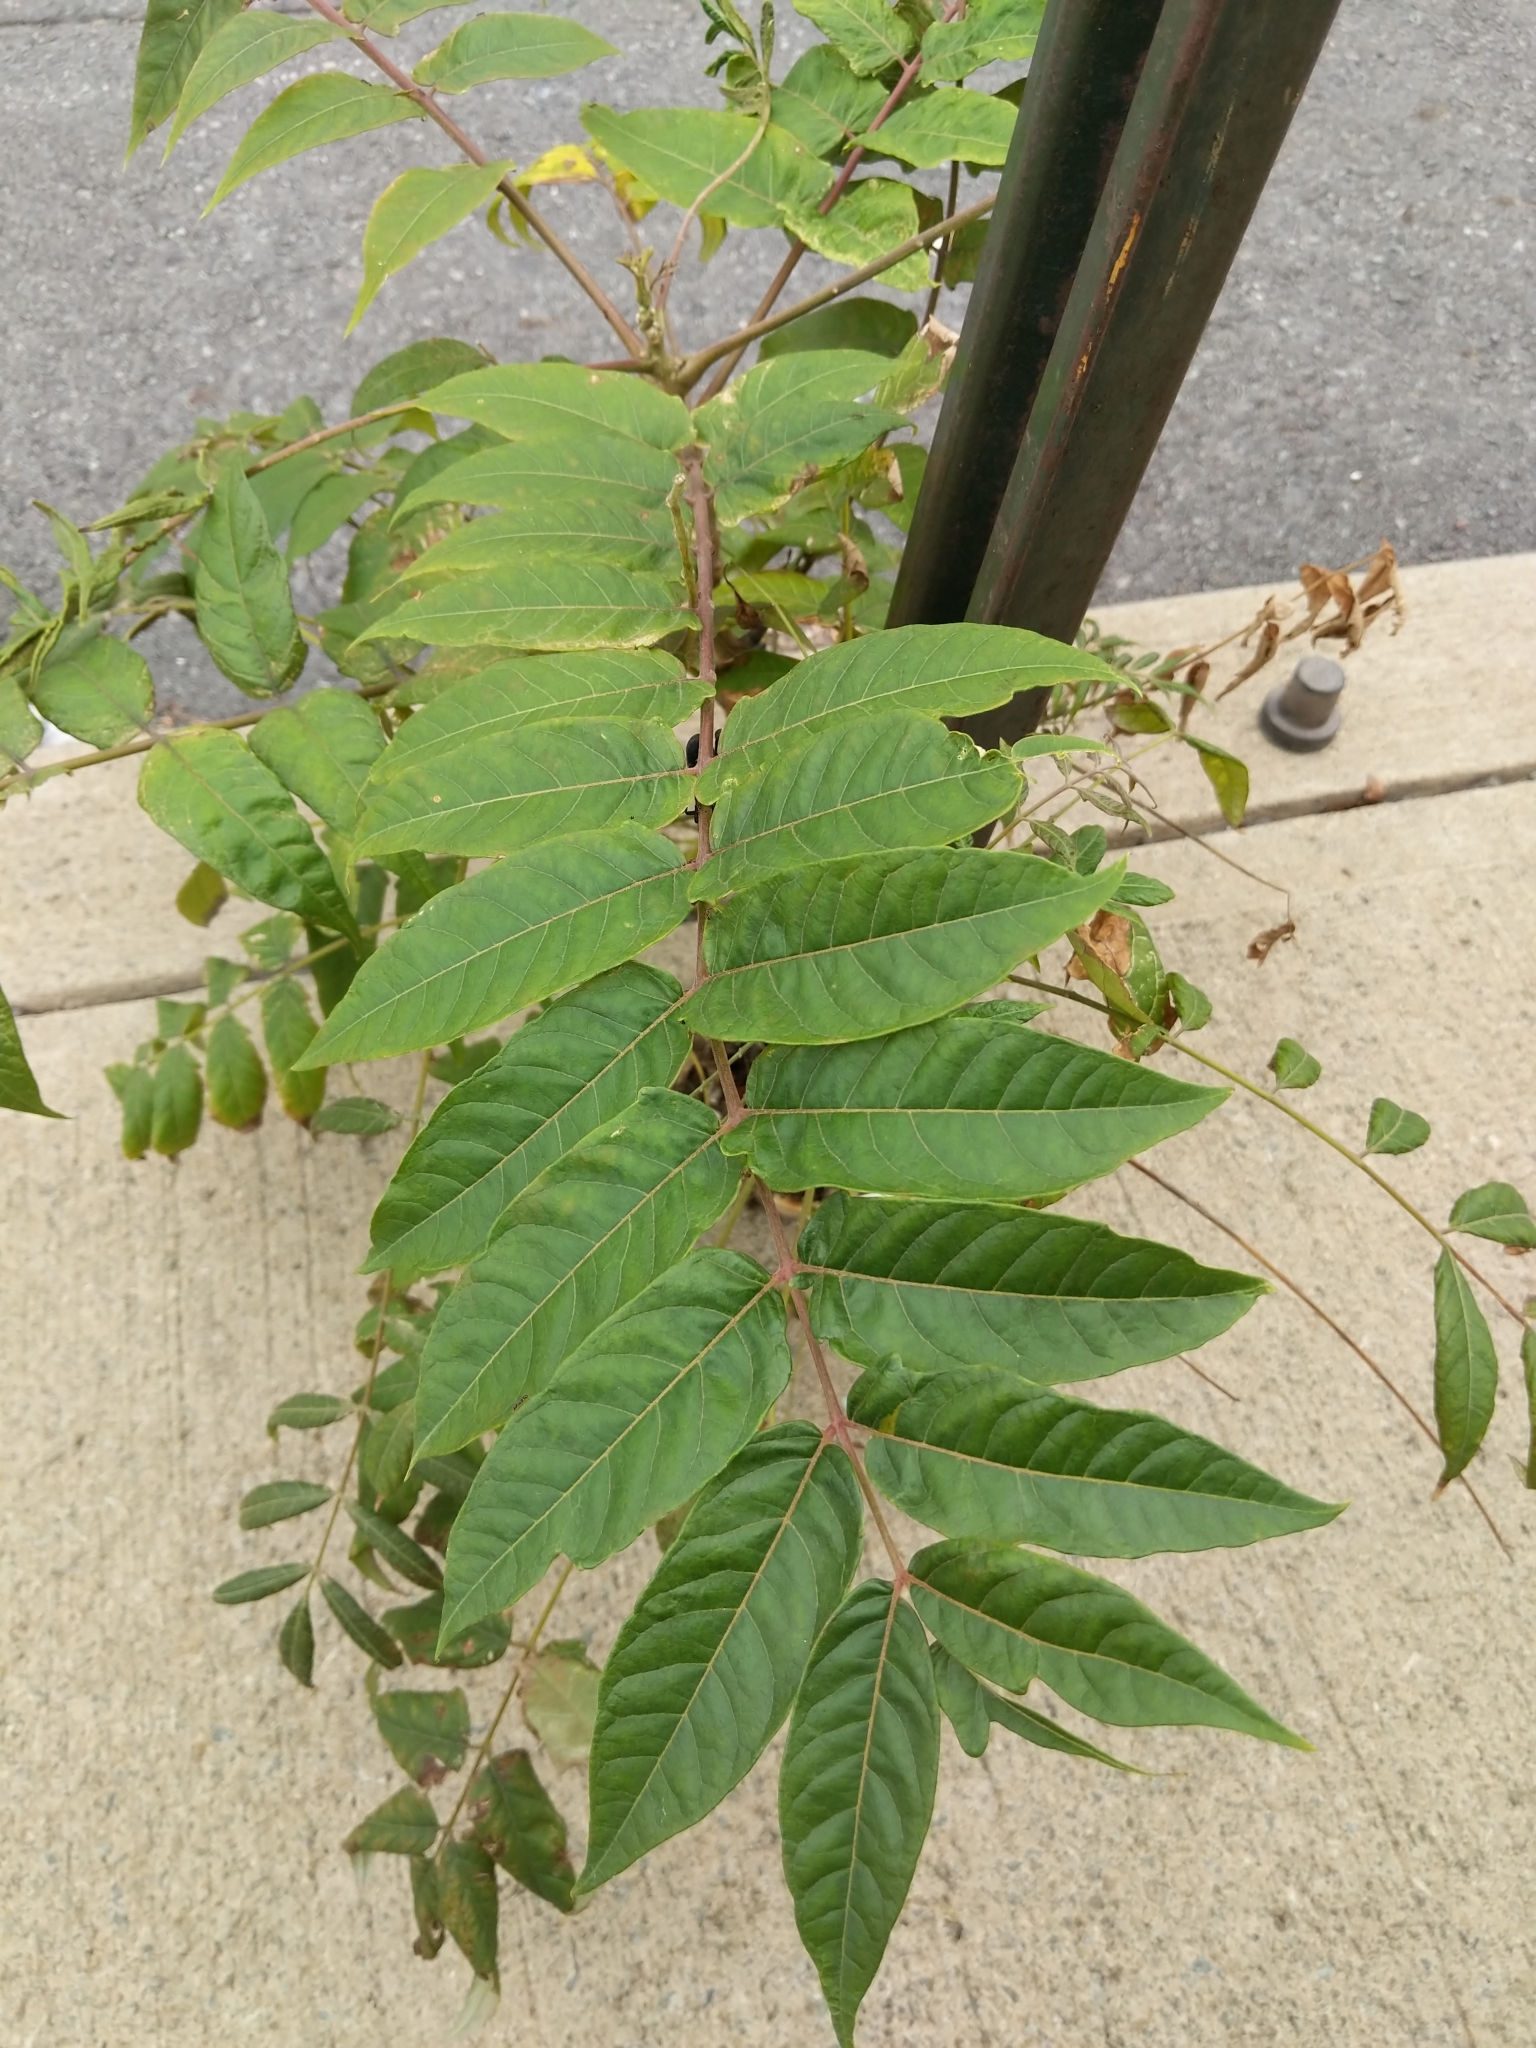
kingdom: Plantae
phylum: Tracheophyta
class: Magnoliopsida
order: Sapindales
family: Simaroubaceae
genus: Ailanthus
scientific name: Ailanthus altissima
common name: Tree-of-heaven
